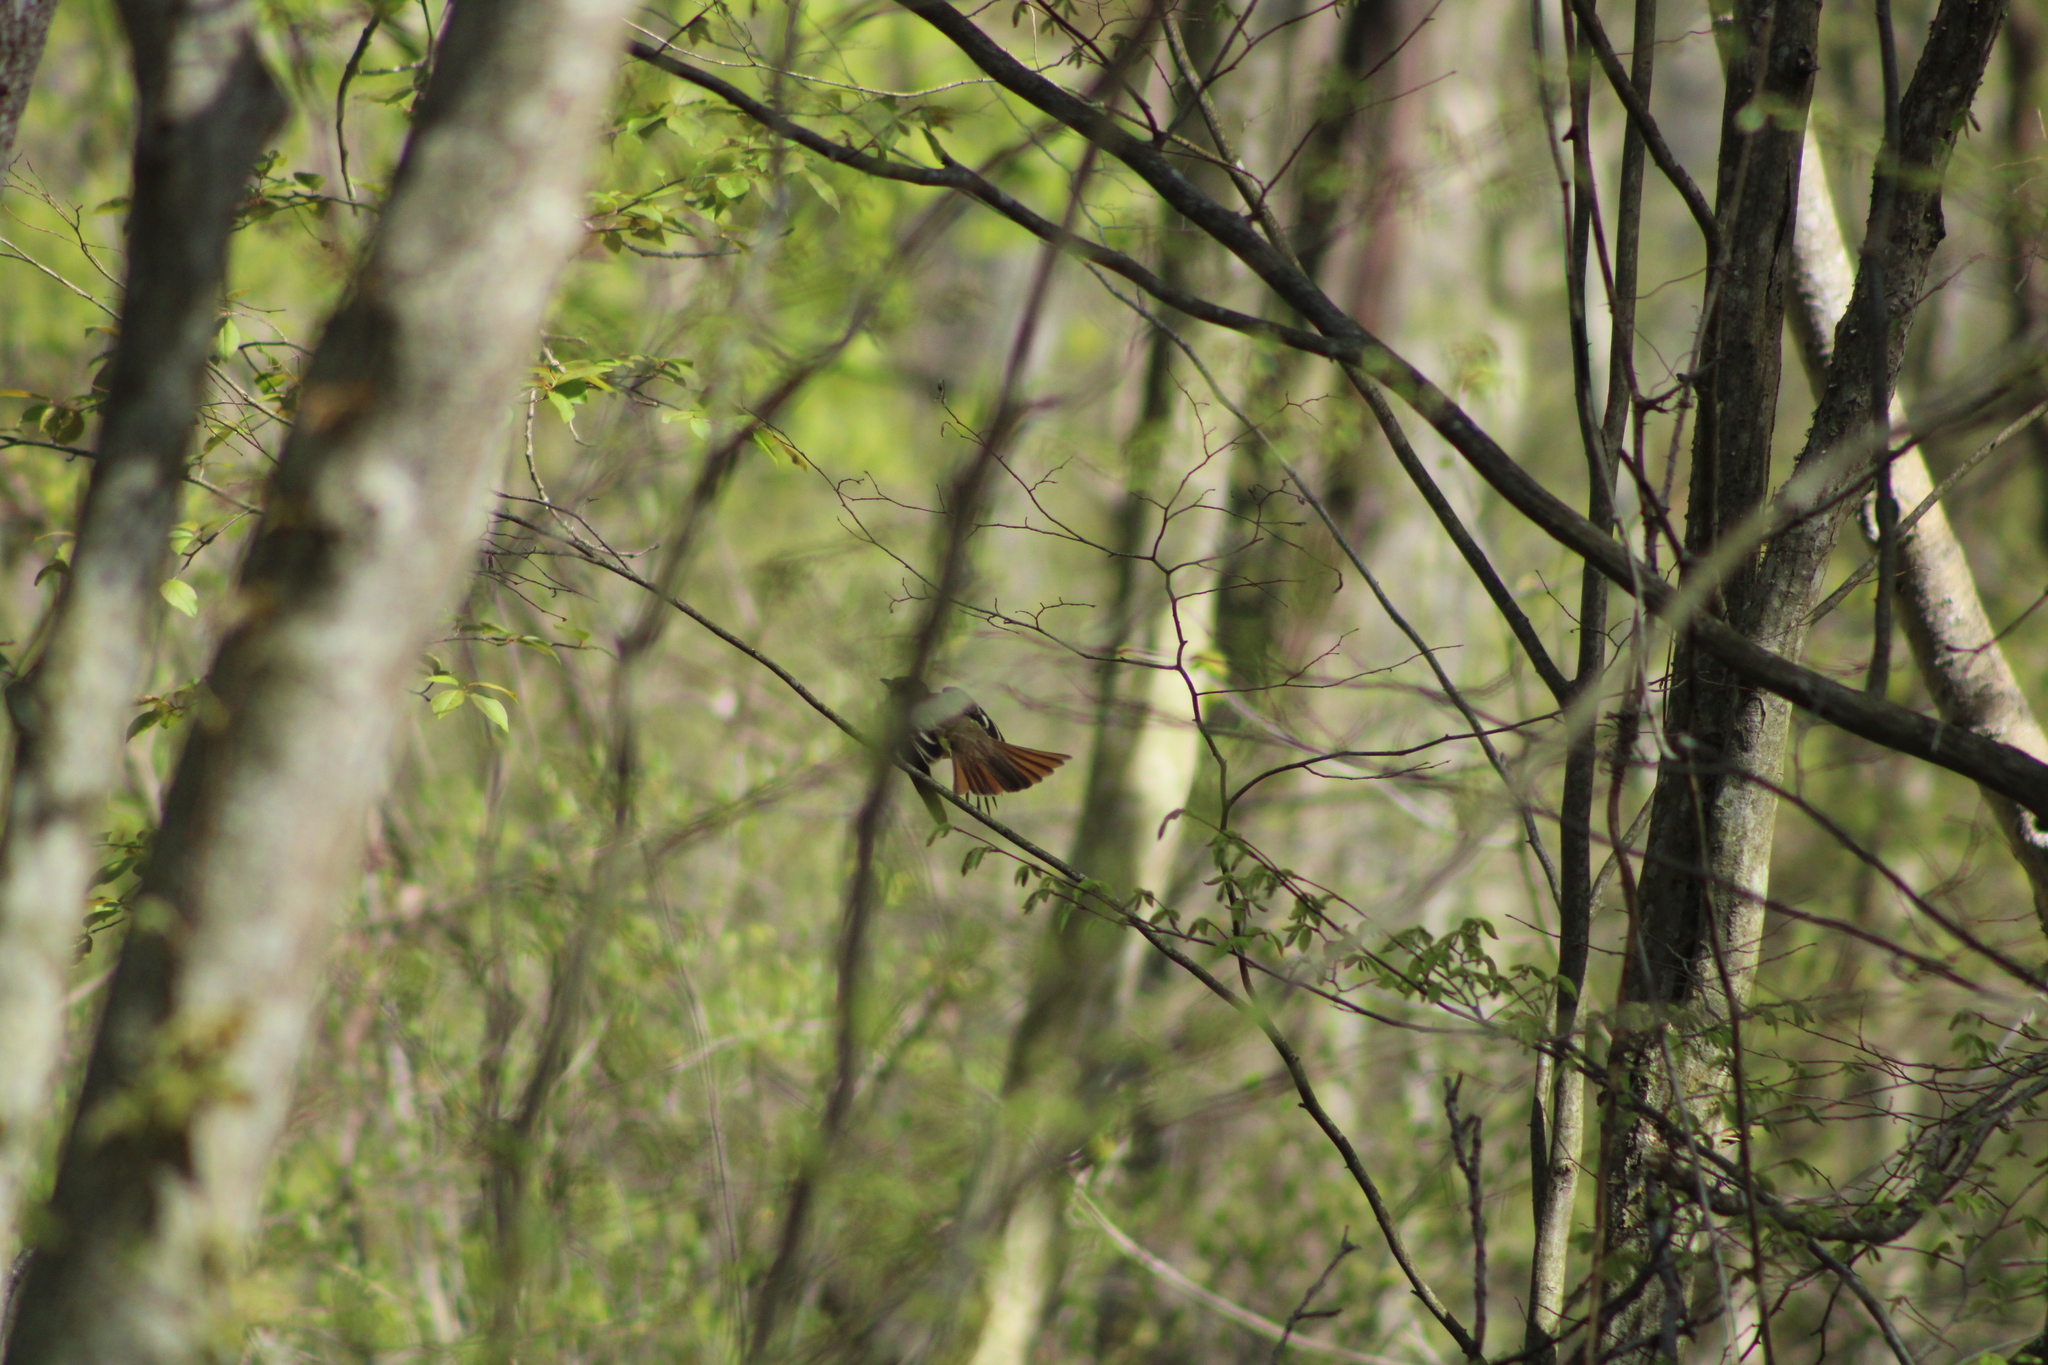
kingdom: Animalia
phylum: Chordata
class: Aves
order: Passeriformes
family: Tyrannidae
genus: Myiarchus
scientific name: Myiarchus crinitus
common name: Great crested flycatcher
